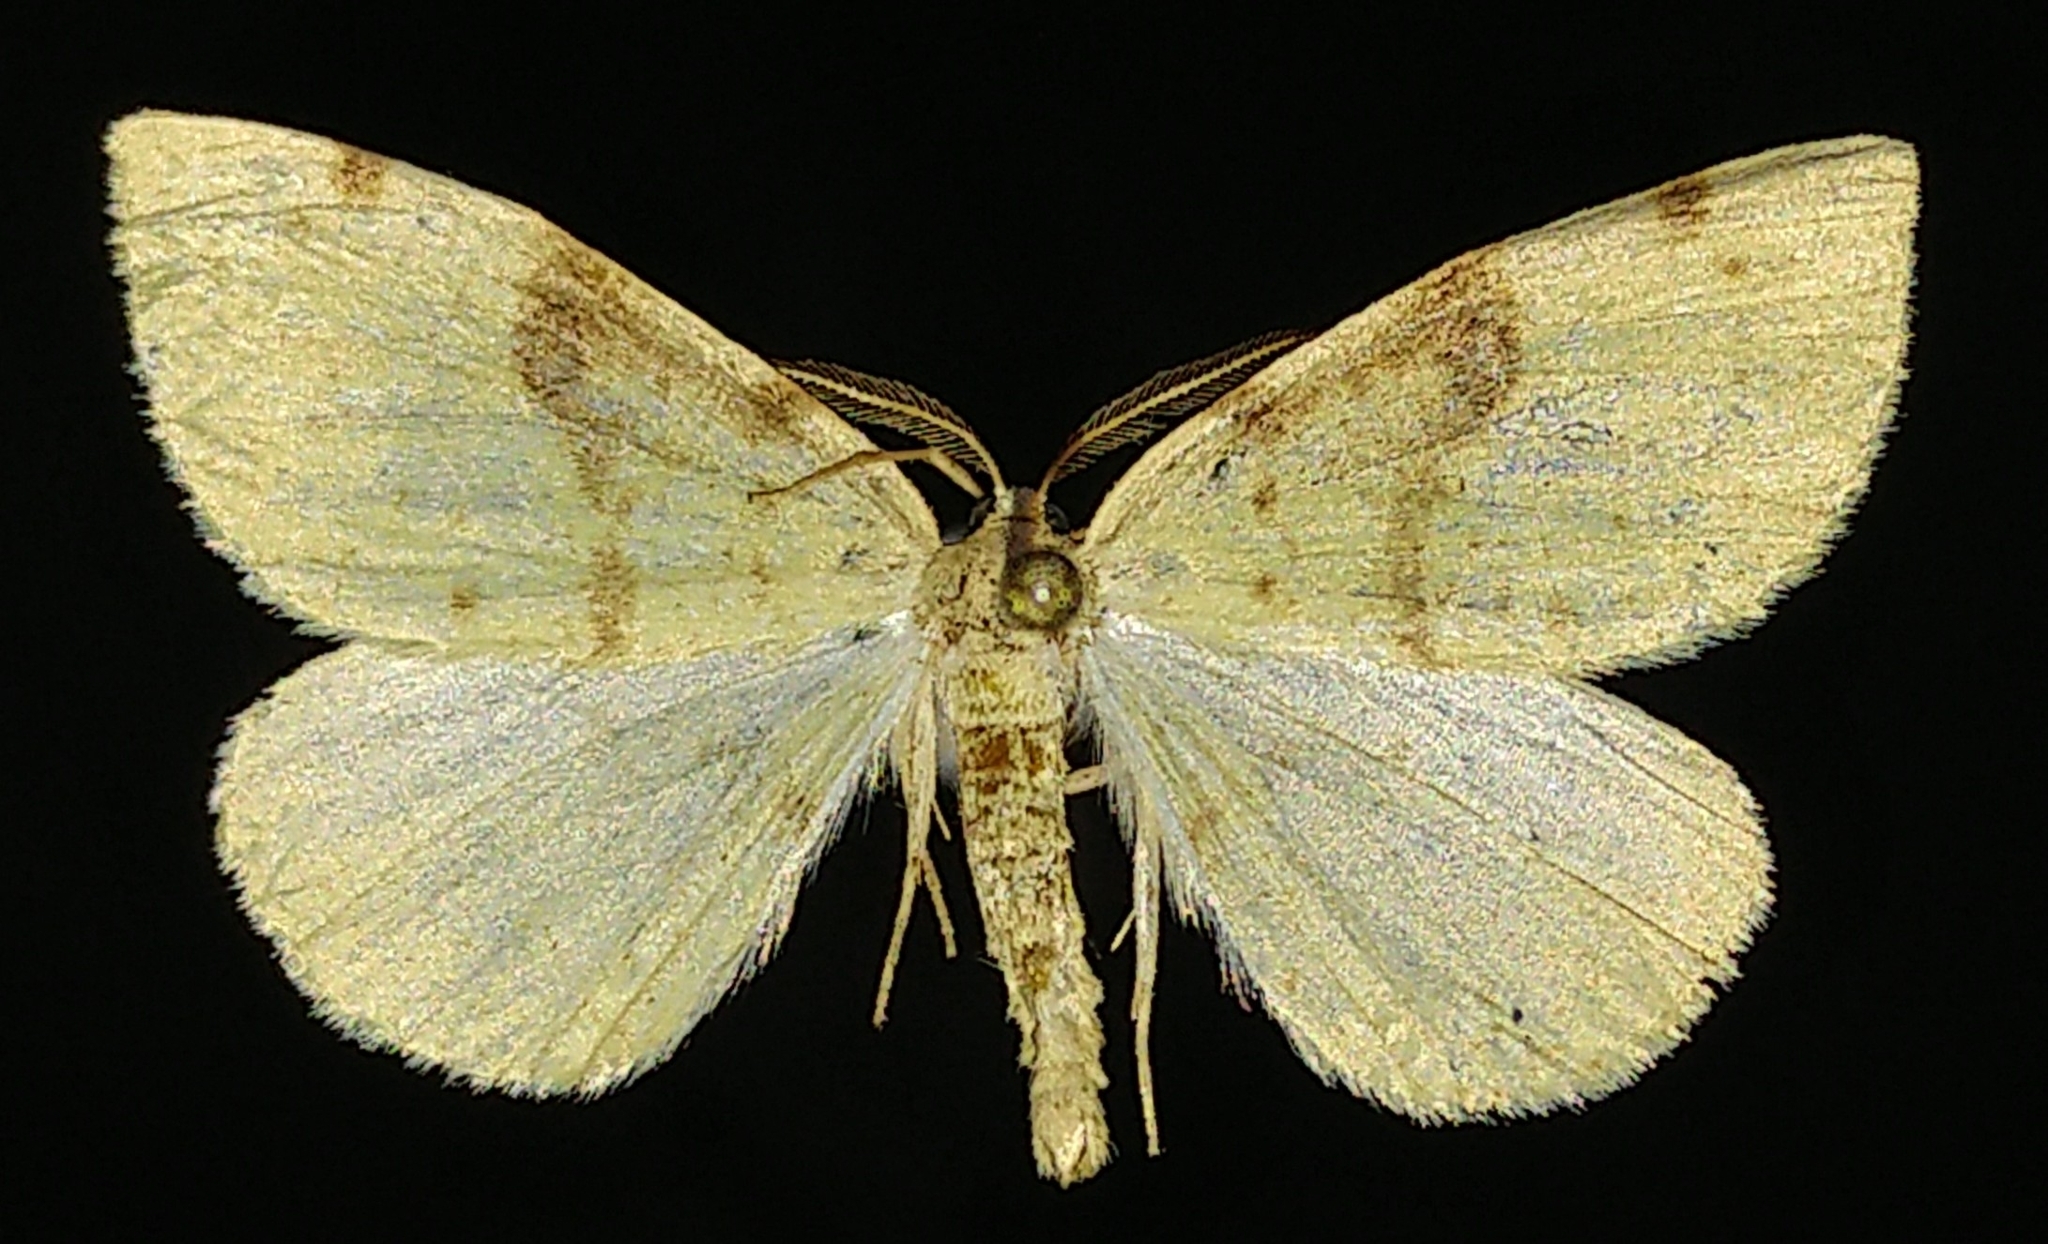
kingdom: Animalia
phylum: Arthropoda
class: Insecta
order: Lepidoptera
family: Geometridae
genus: Hesperumia
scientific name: Hesperumia sulphuraria
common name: Sulphur moth
